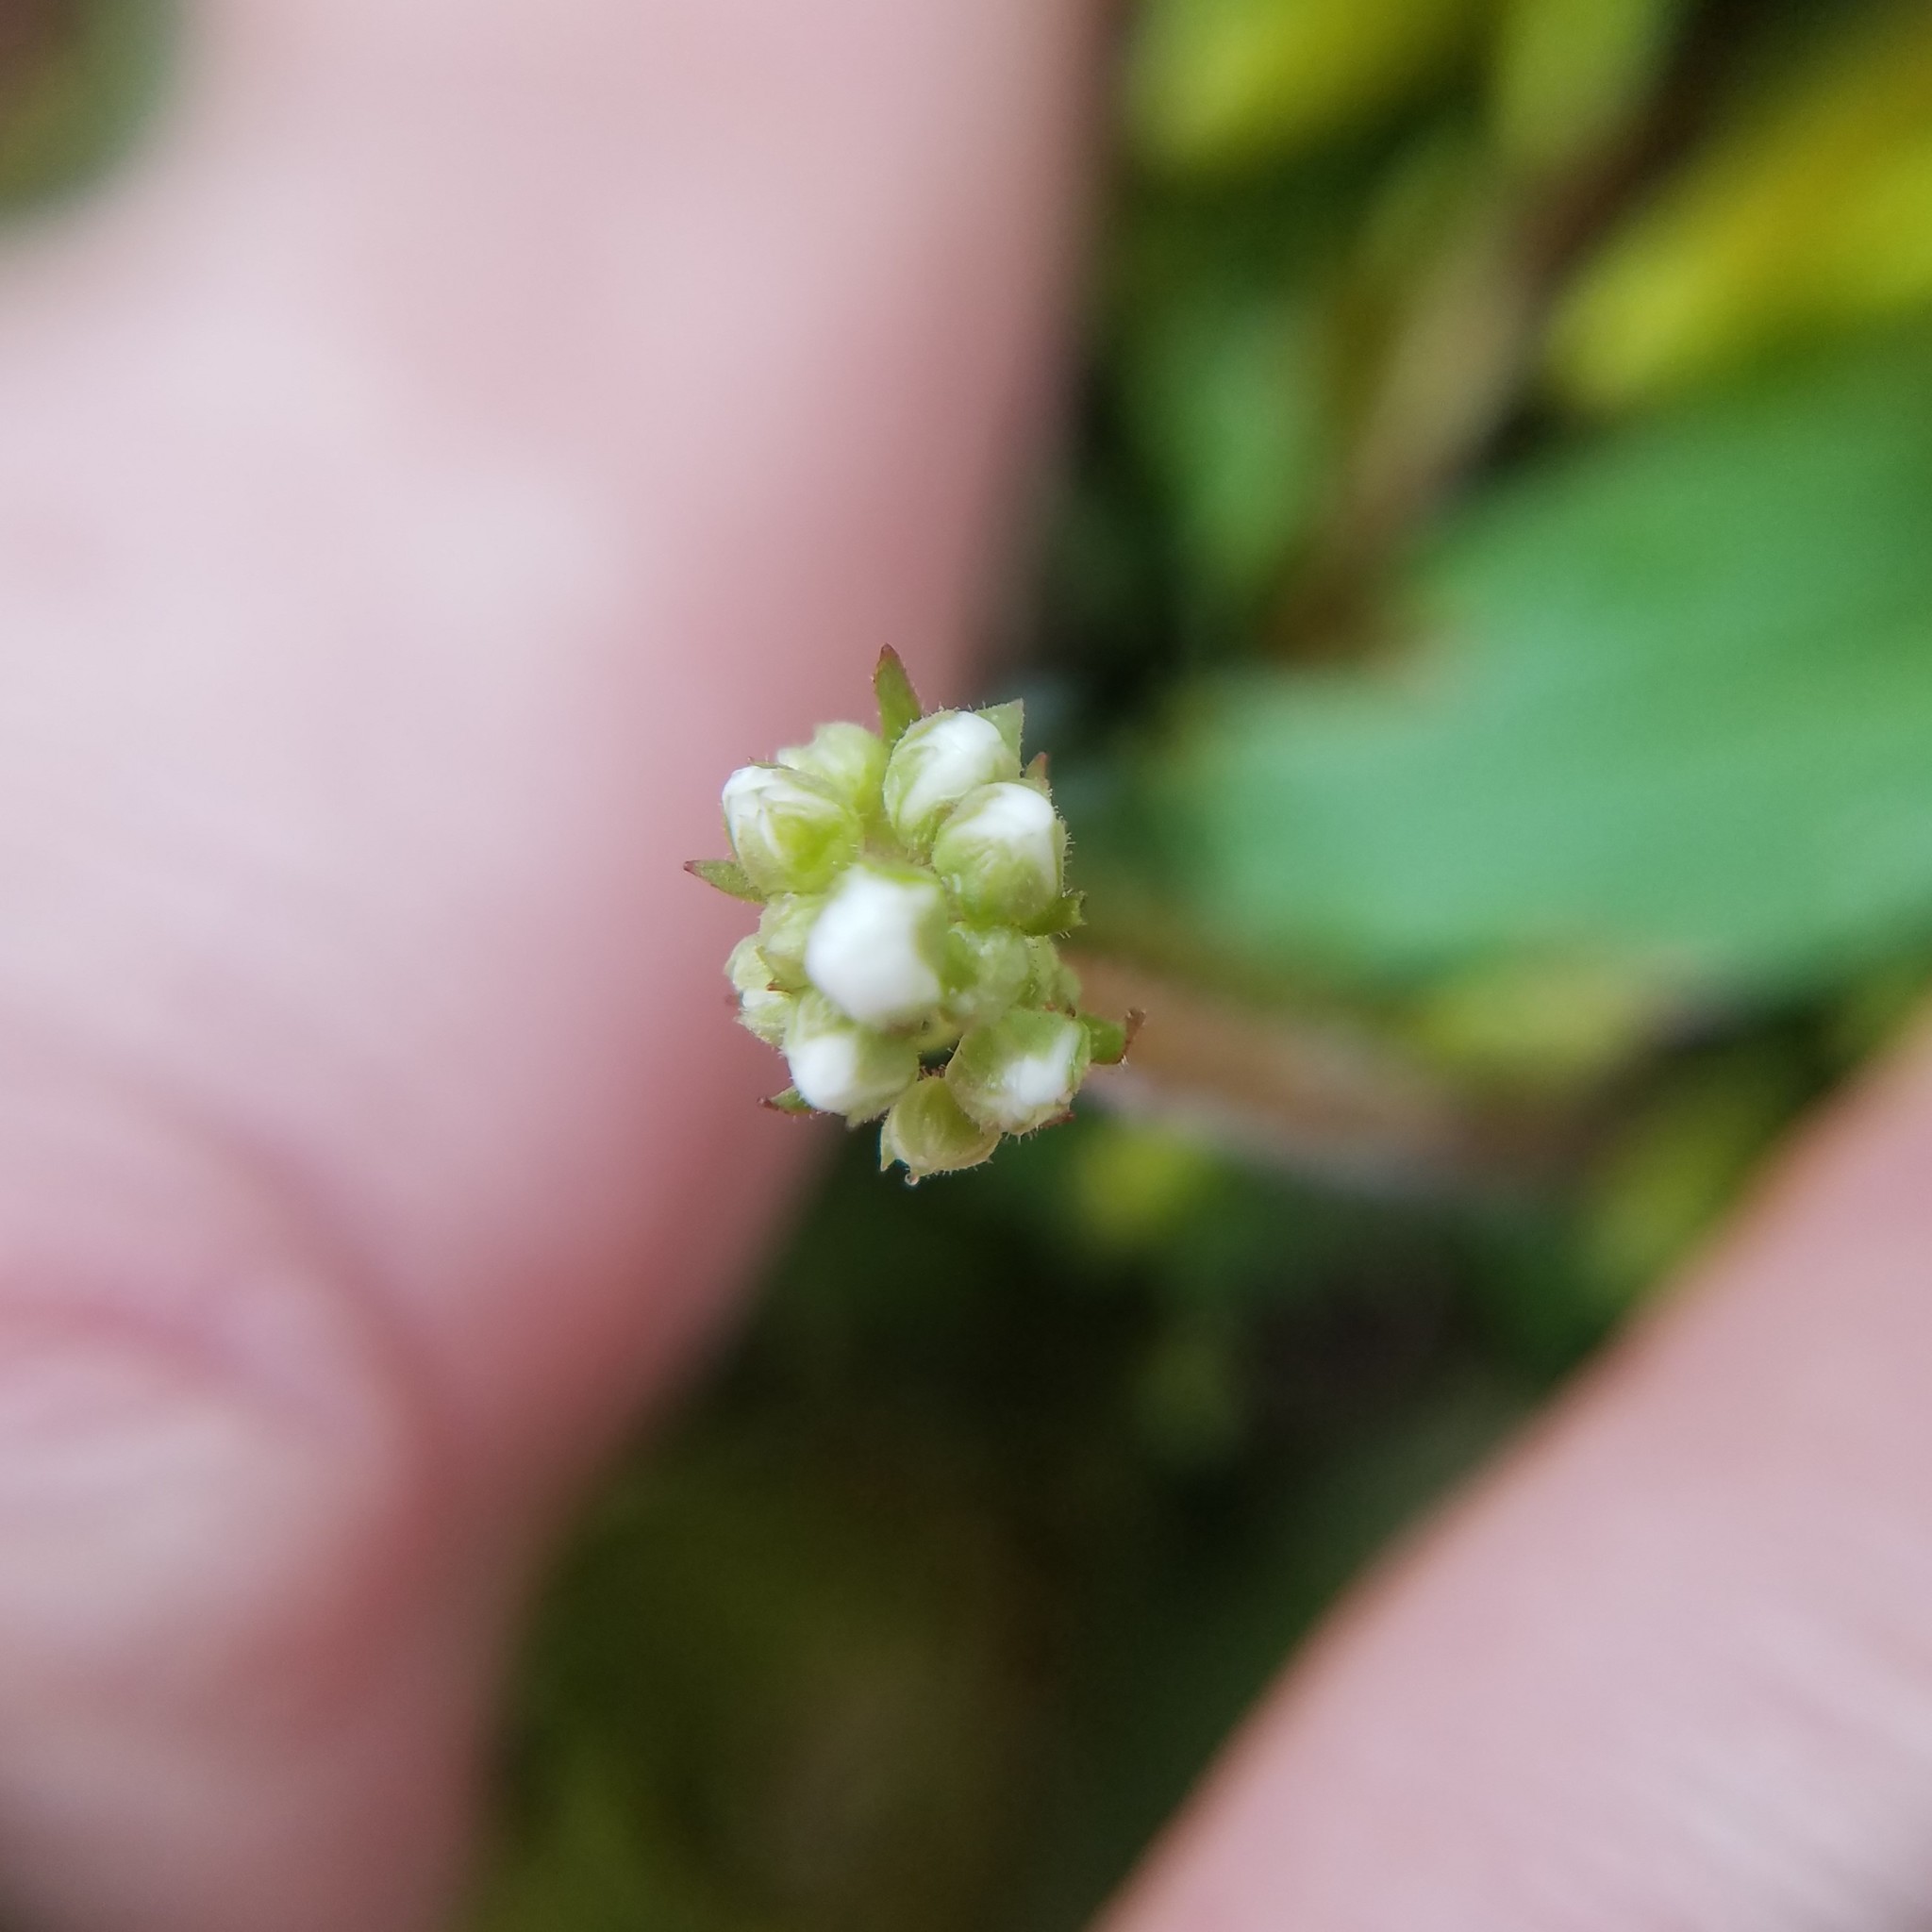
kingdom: Plantae
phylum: Tracheophyta
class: Magnoliopsida
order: Saxifragales
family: Saxifragaceae
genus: Micranthes
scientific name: Micranthes virginiensis
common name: Early saxifrage
